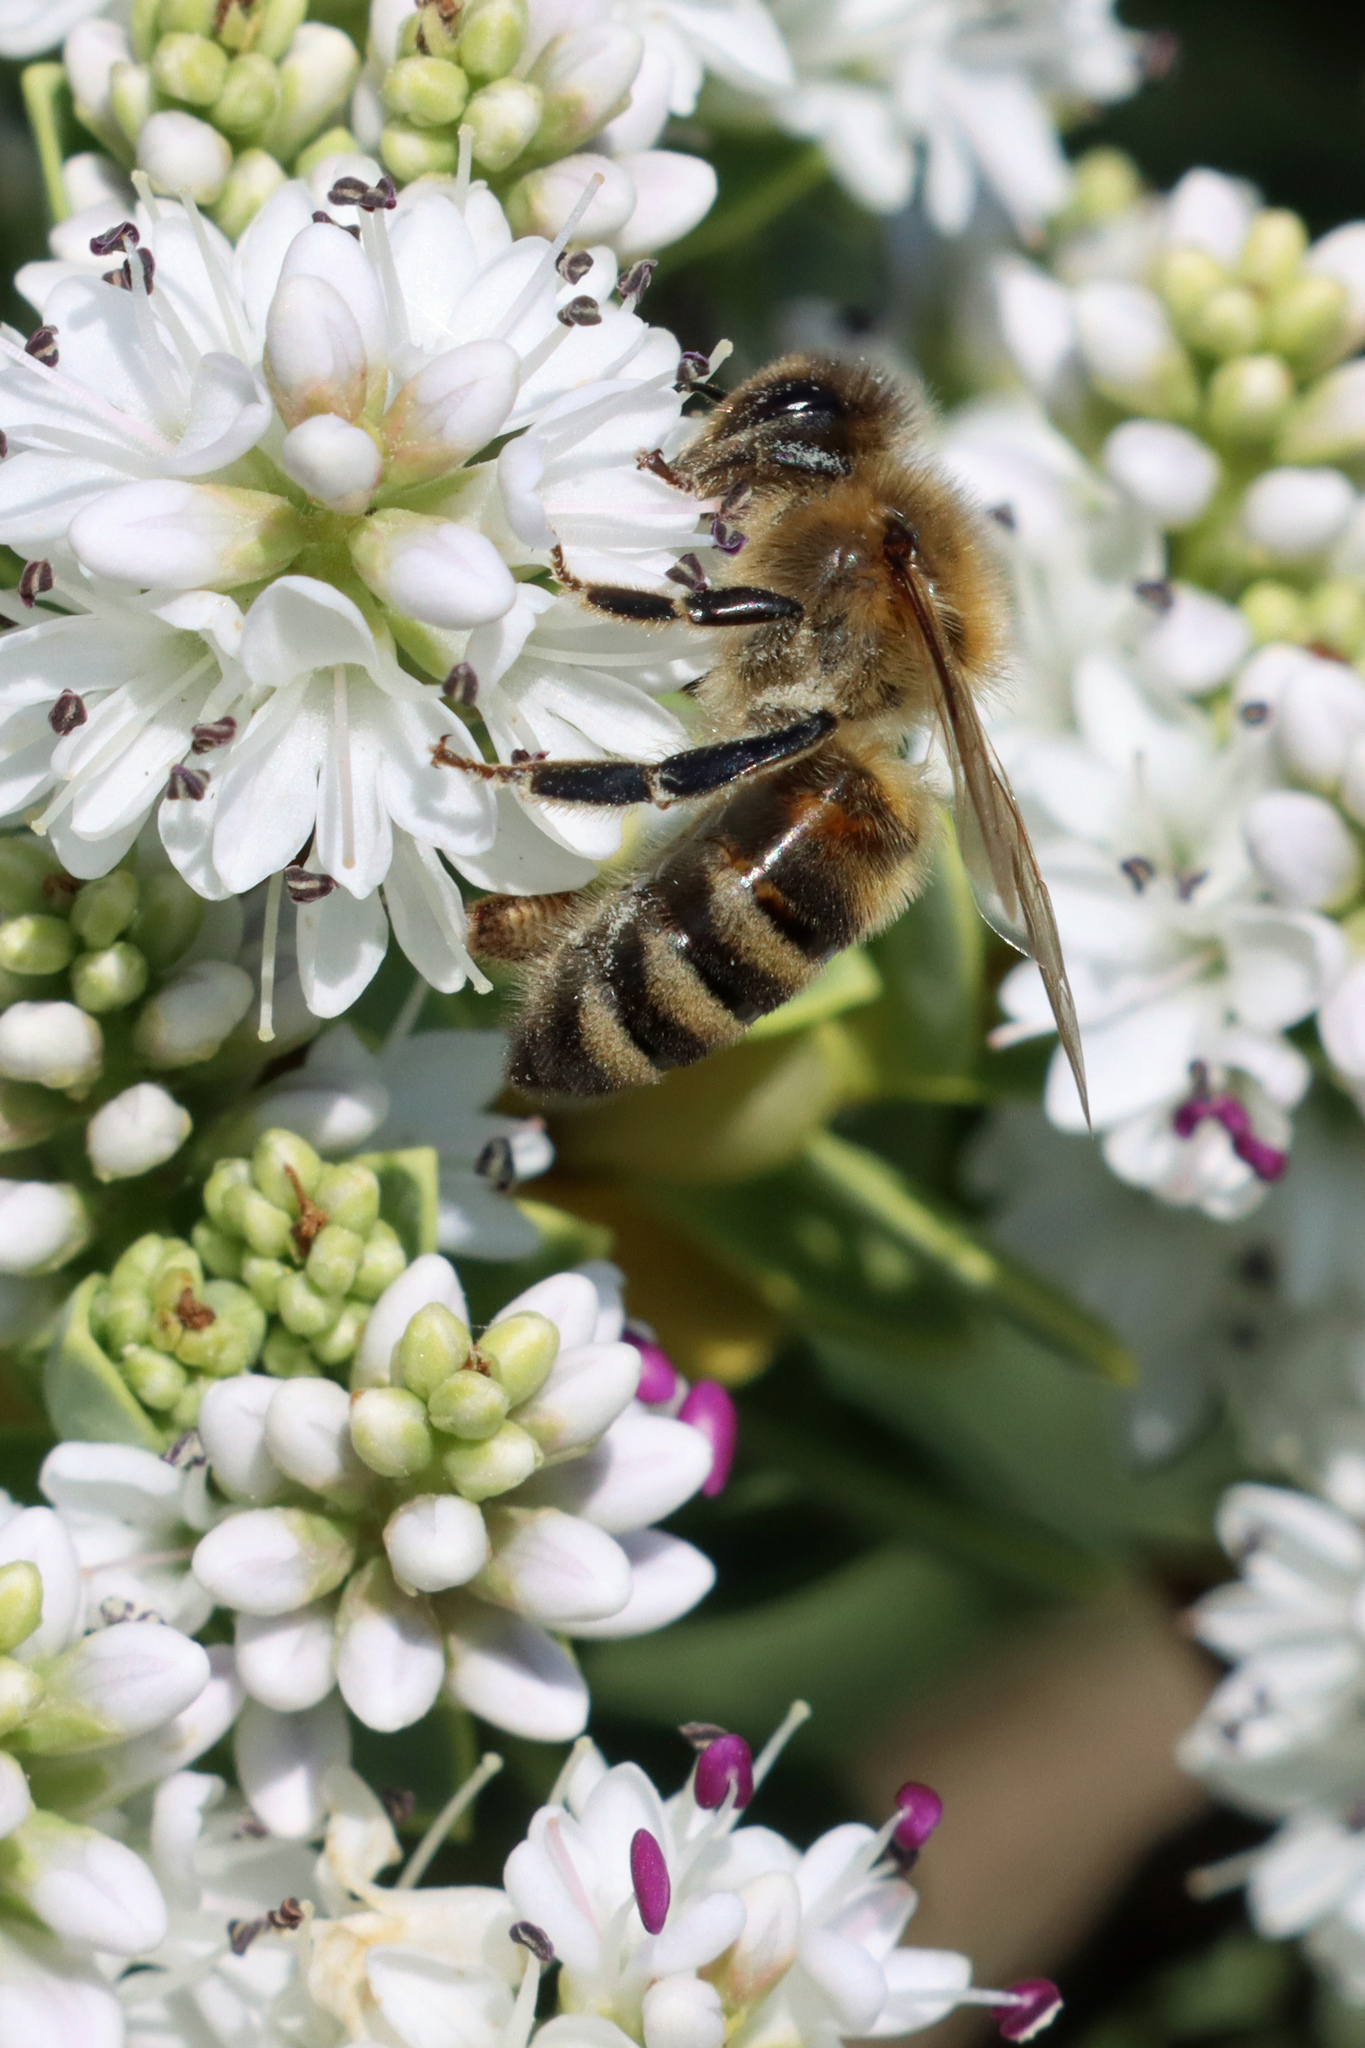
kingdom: Animalia
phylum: Arthropoda
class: Insecta
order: Hymenoptera
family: Apidae
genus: Apis
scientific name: Apis mellifera
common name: Honey bee
